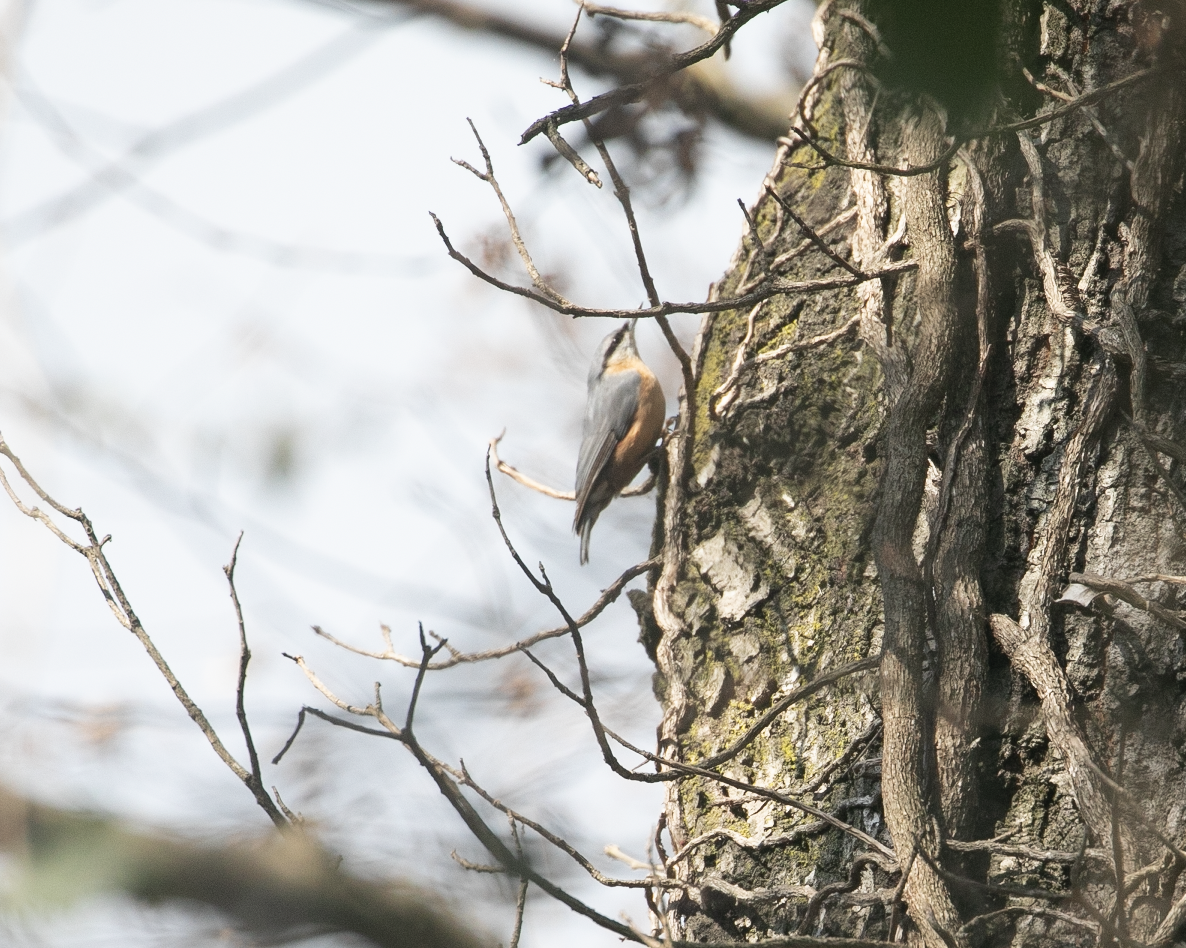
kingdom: Animalia
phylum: Chordata
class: Aves
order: Passeriformes
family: Sittidae
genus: Sitta
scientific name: Sitta europaea
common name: Eurasian nuthatch
